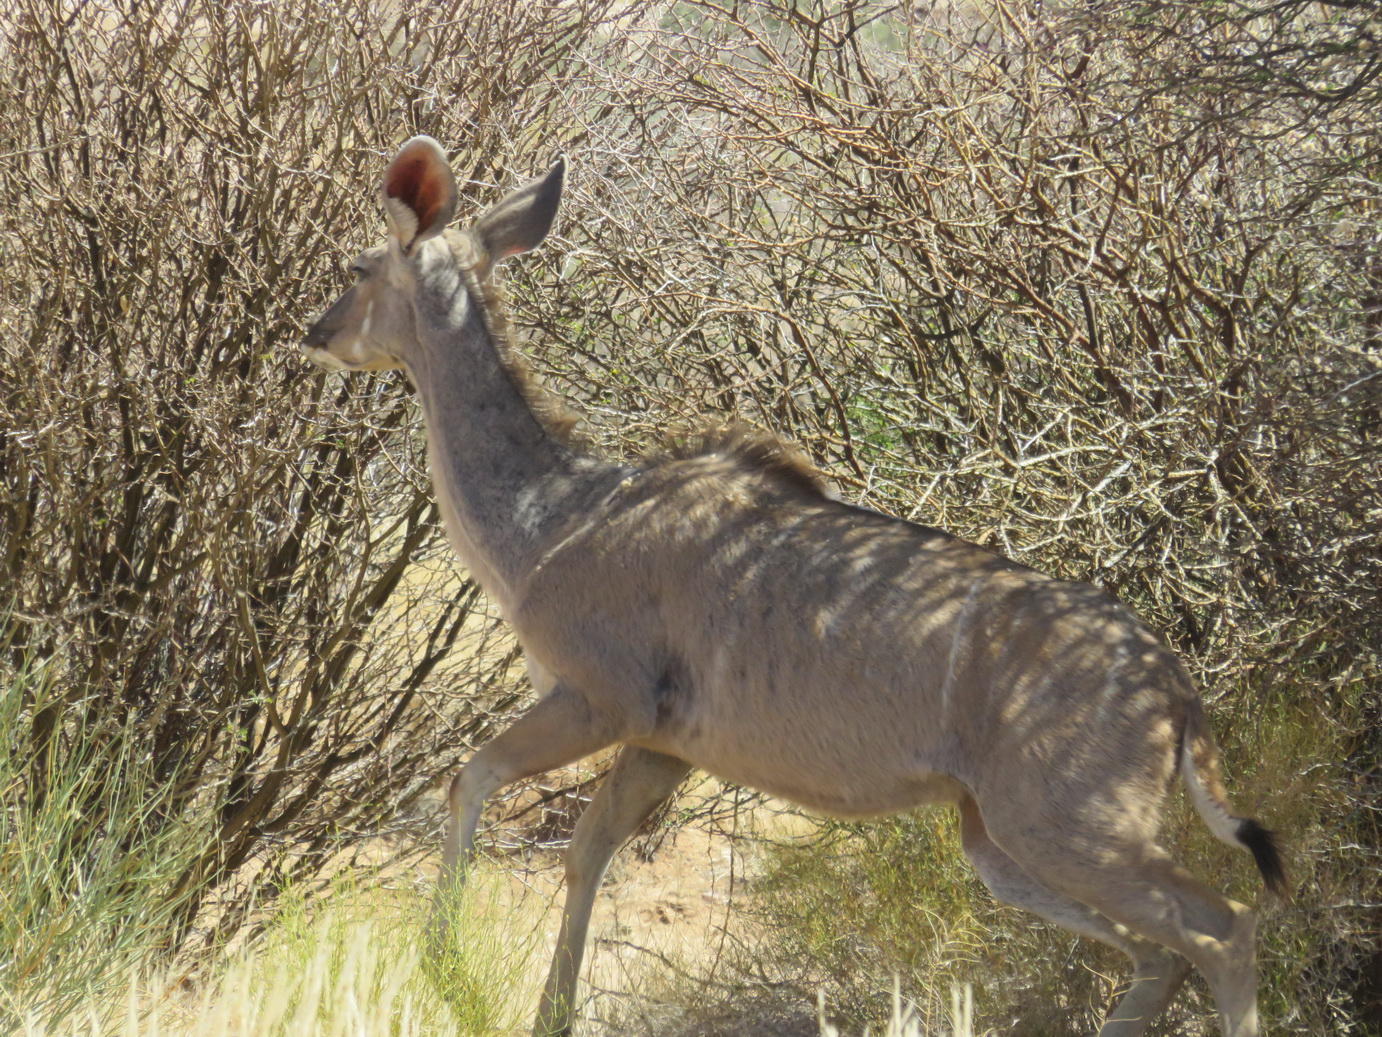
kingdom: Animalia
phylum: Chordata
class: Mammalia
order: Artiodactyla
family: Bovidae
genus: Tragelaphus
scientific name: Tragelaphus strepsiceros
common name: Greater kudu
